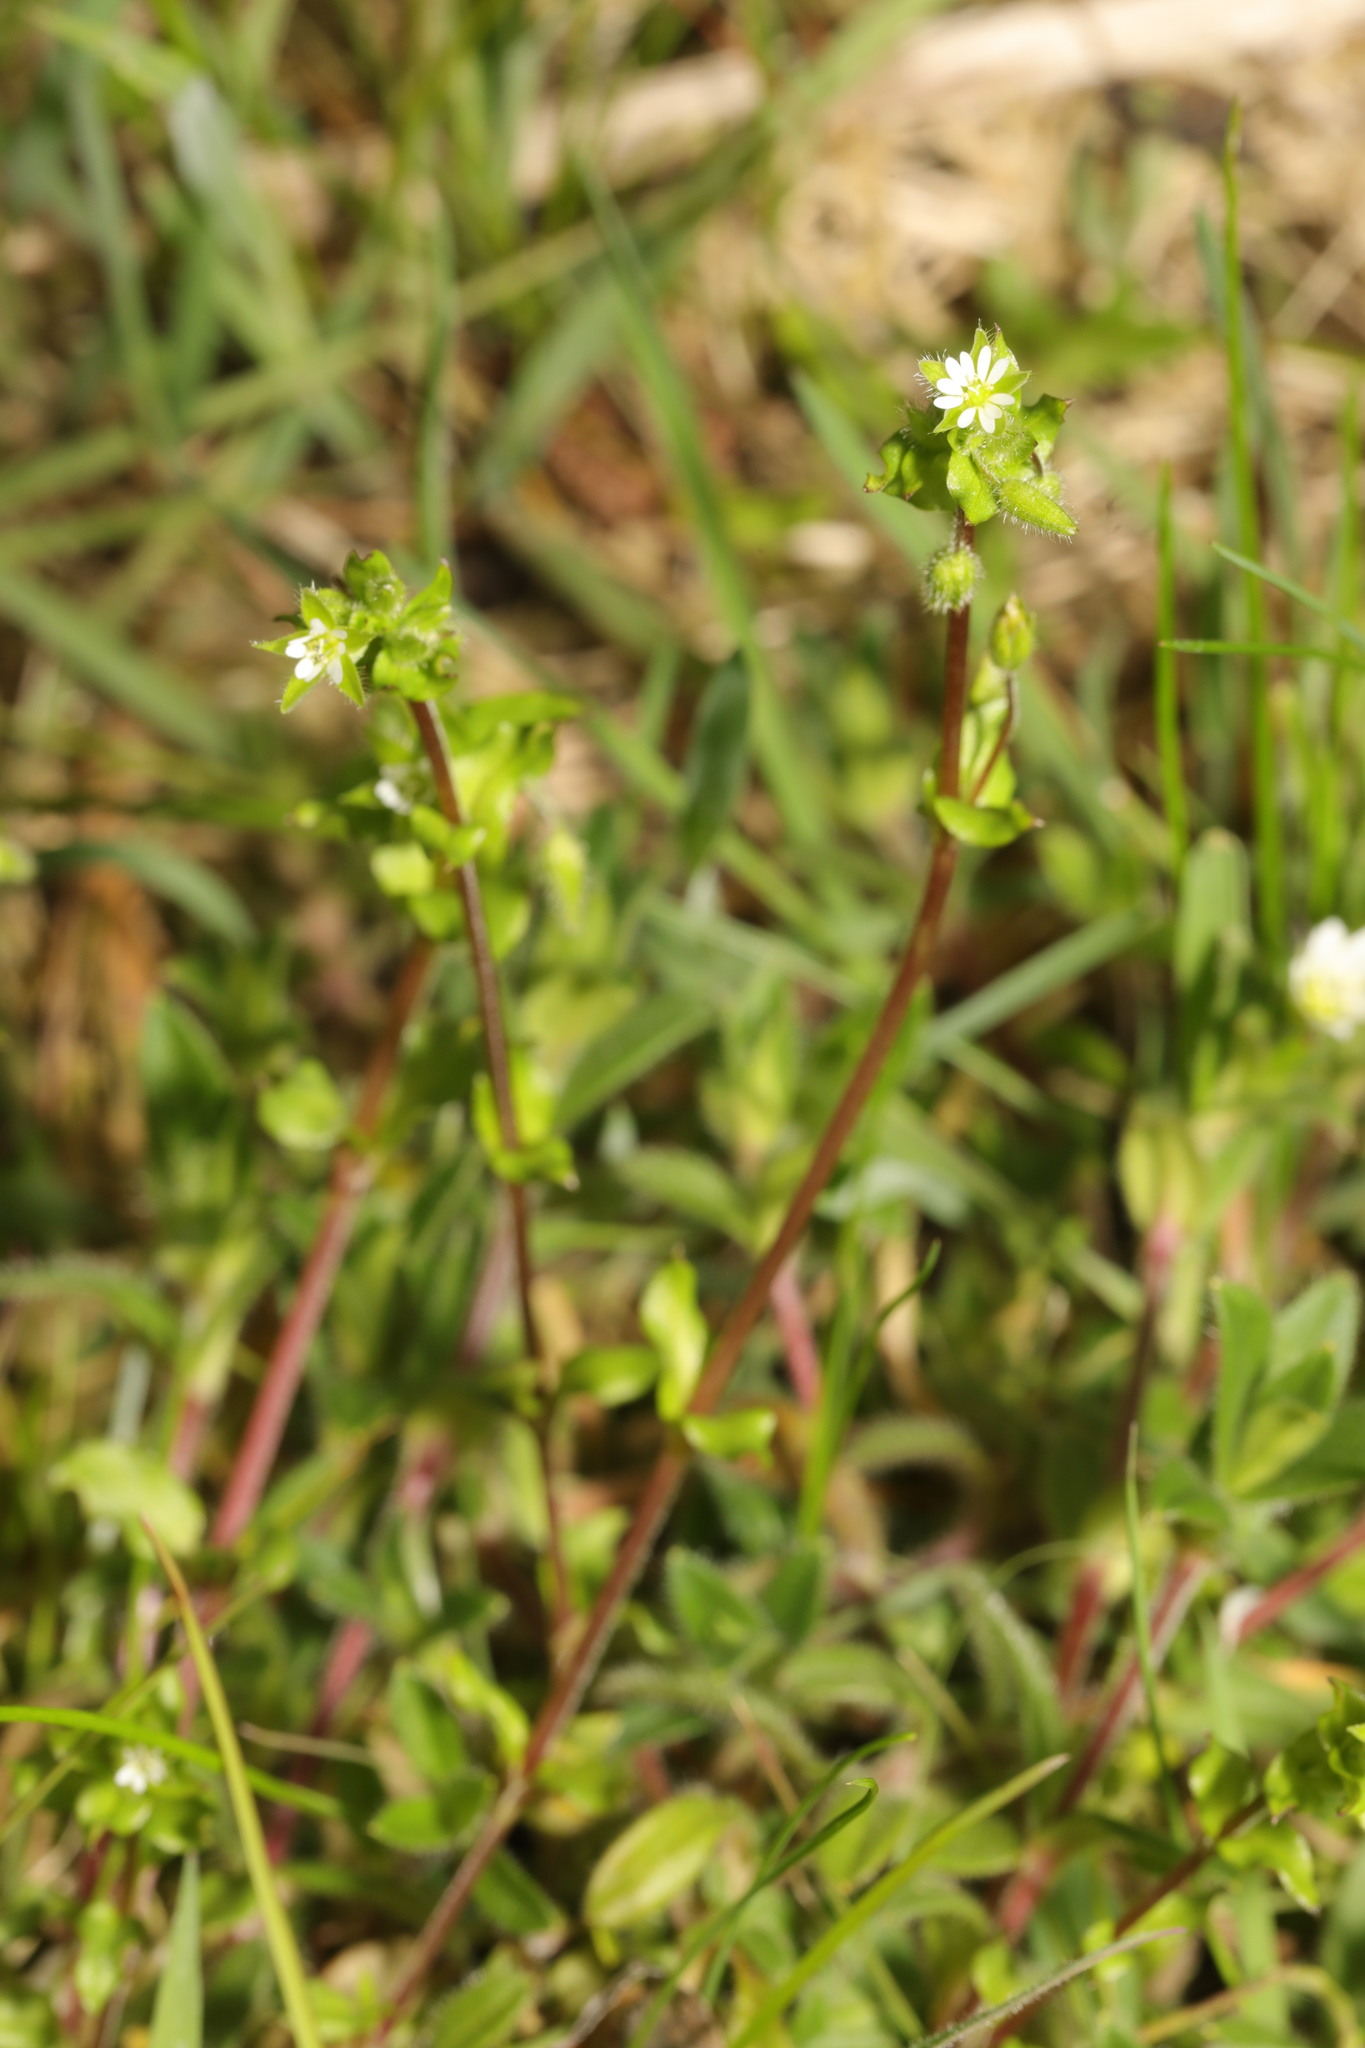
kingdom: Plantae
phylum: Tracheophyta
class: Magnoliopsida
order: Caryophyllales
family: Caryophyllaceae
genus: Stellaria
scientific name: Stellaria media
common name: Common chickweed
